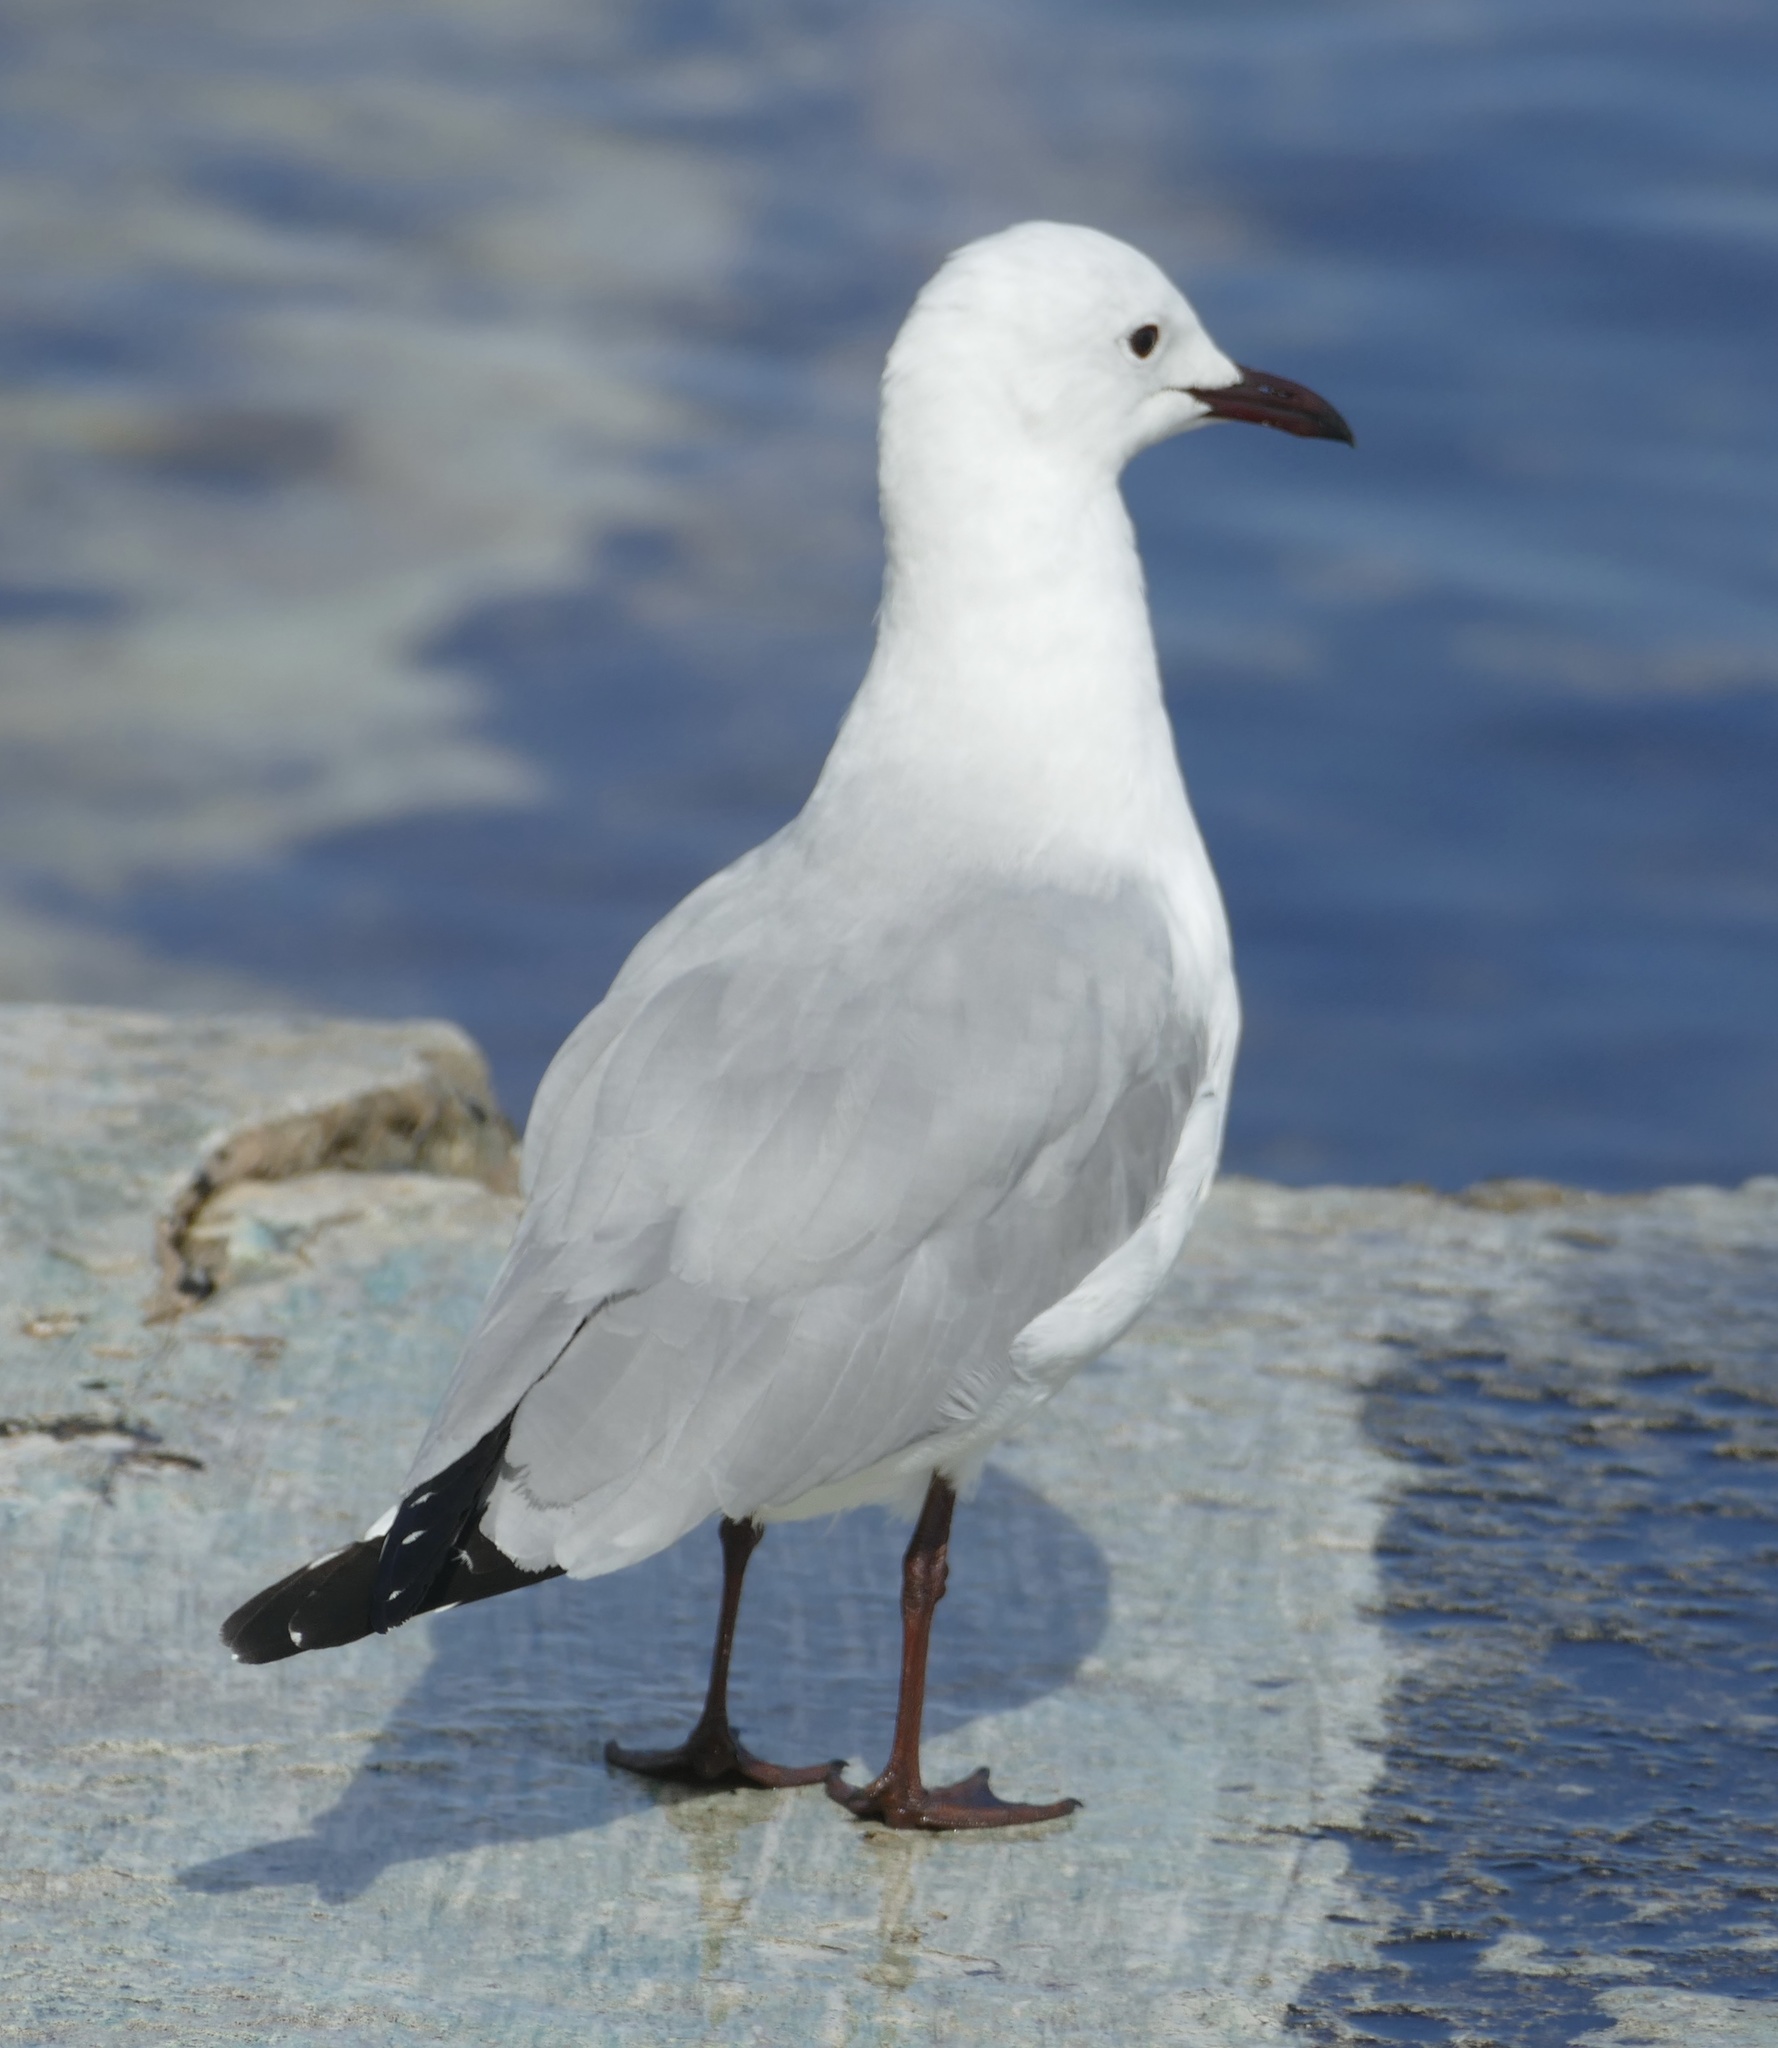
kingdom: Animalia
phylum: Chordata
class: Aves
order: Charadriiformes
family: Laridae
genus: Chroicocephalus
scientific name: Chroicocephalus hartlaubii
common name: Hartlaub's gull
